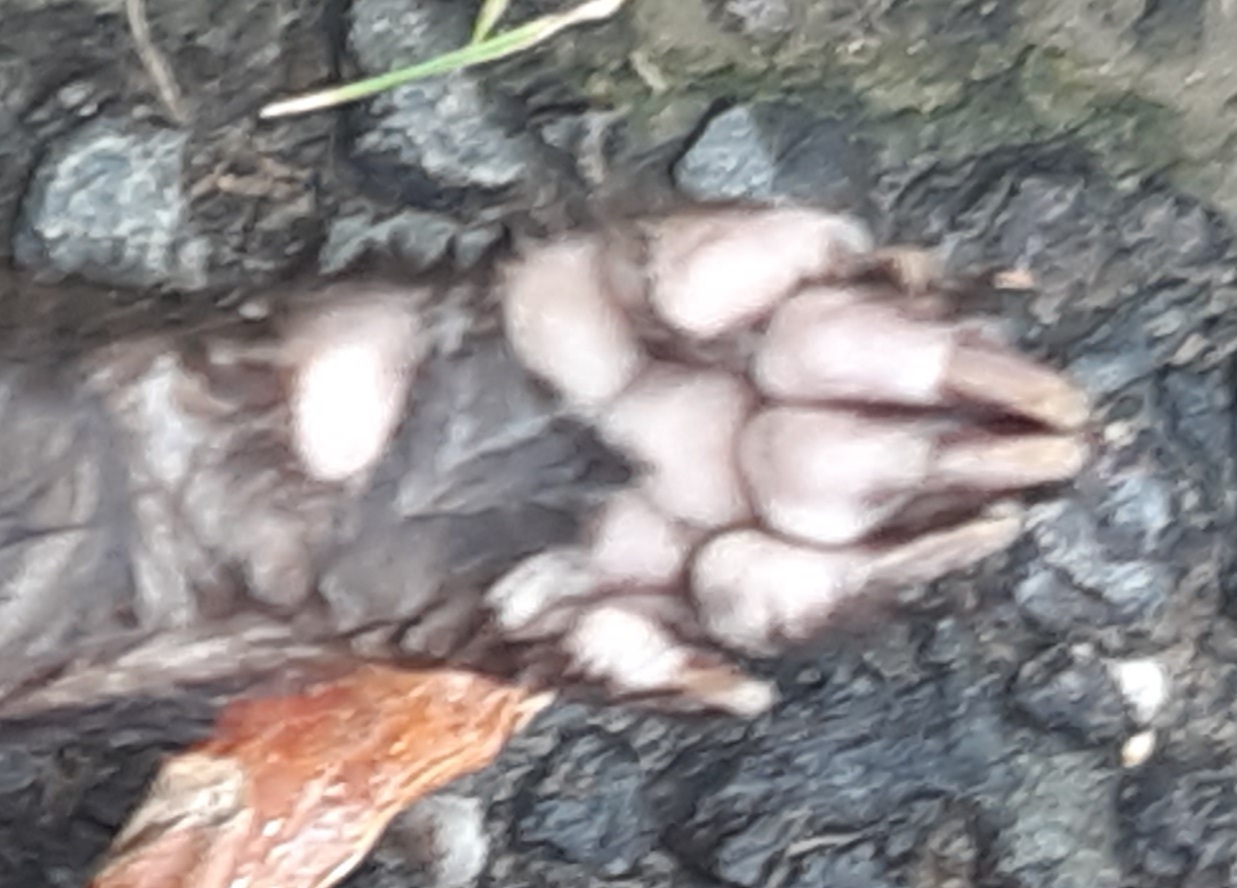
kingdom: Animalia
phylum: Chordata
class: Mammalia
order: Carnivora
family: Mustelidae
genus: Mustela
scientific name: Mustela putorius
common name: European polecat
